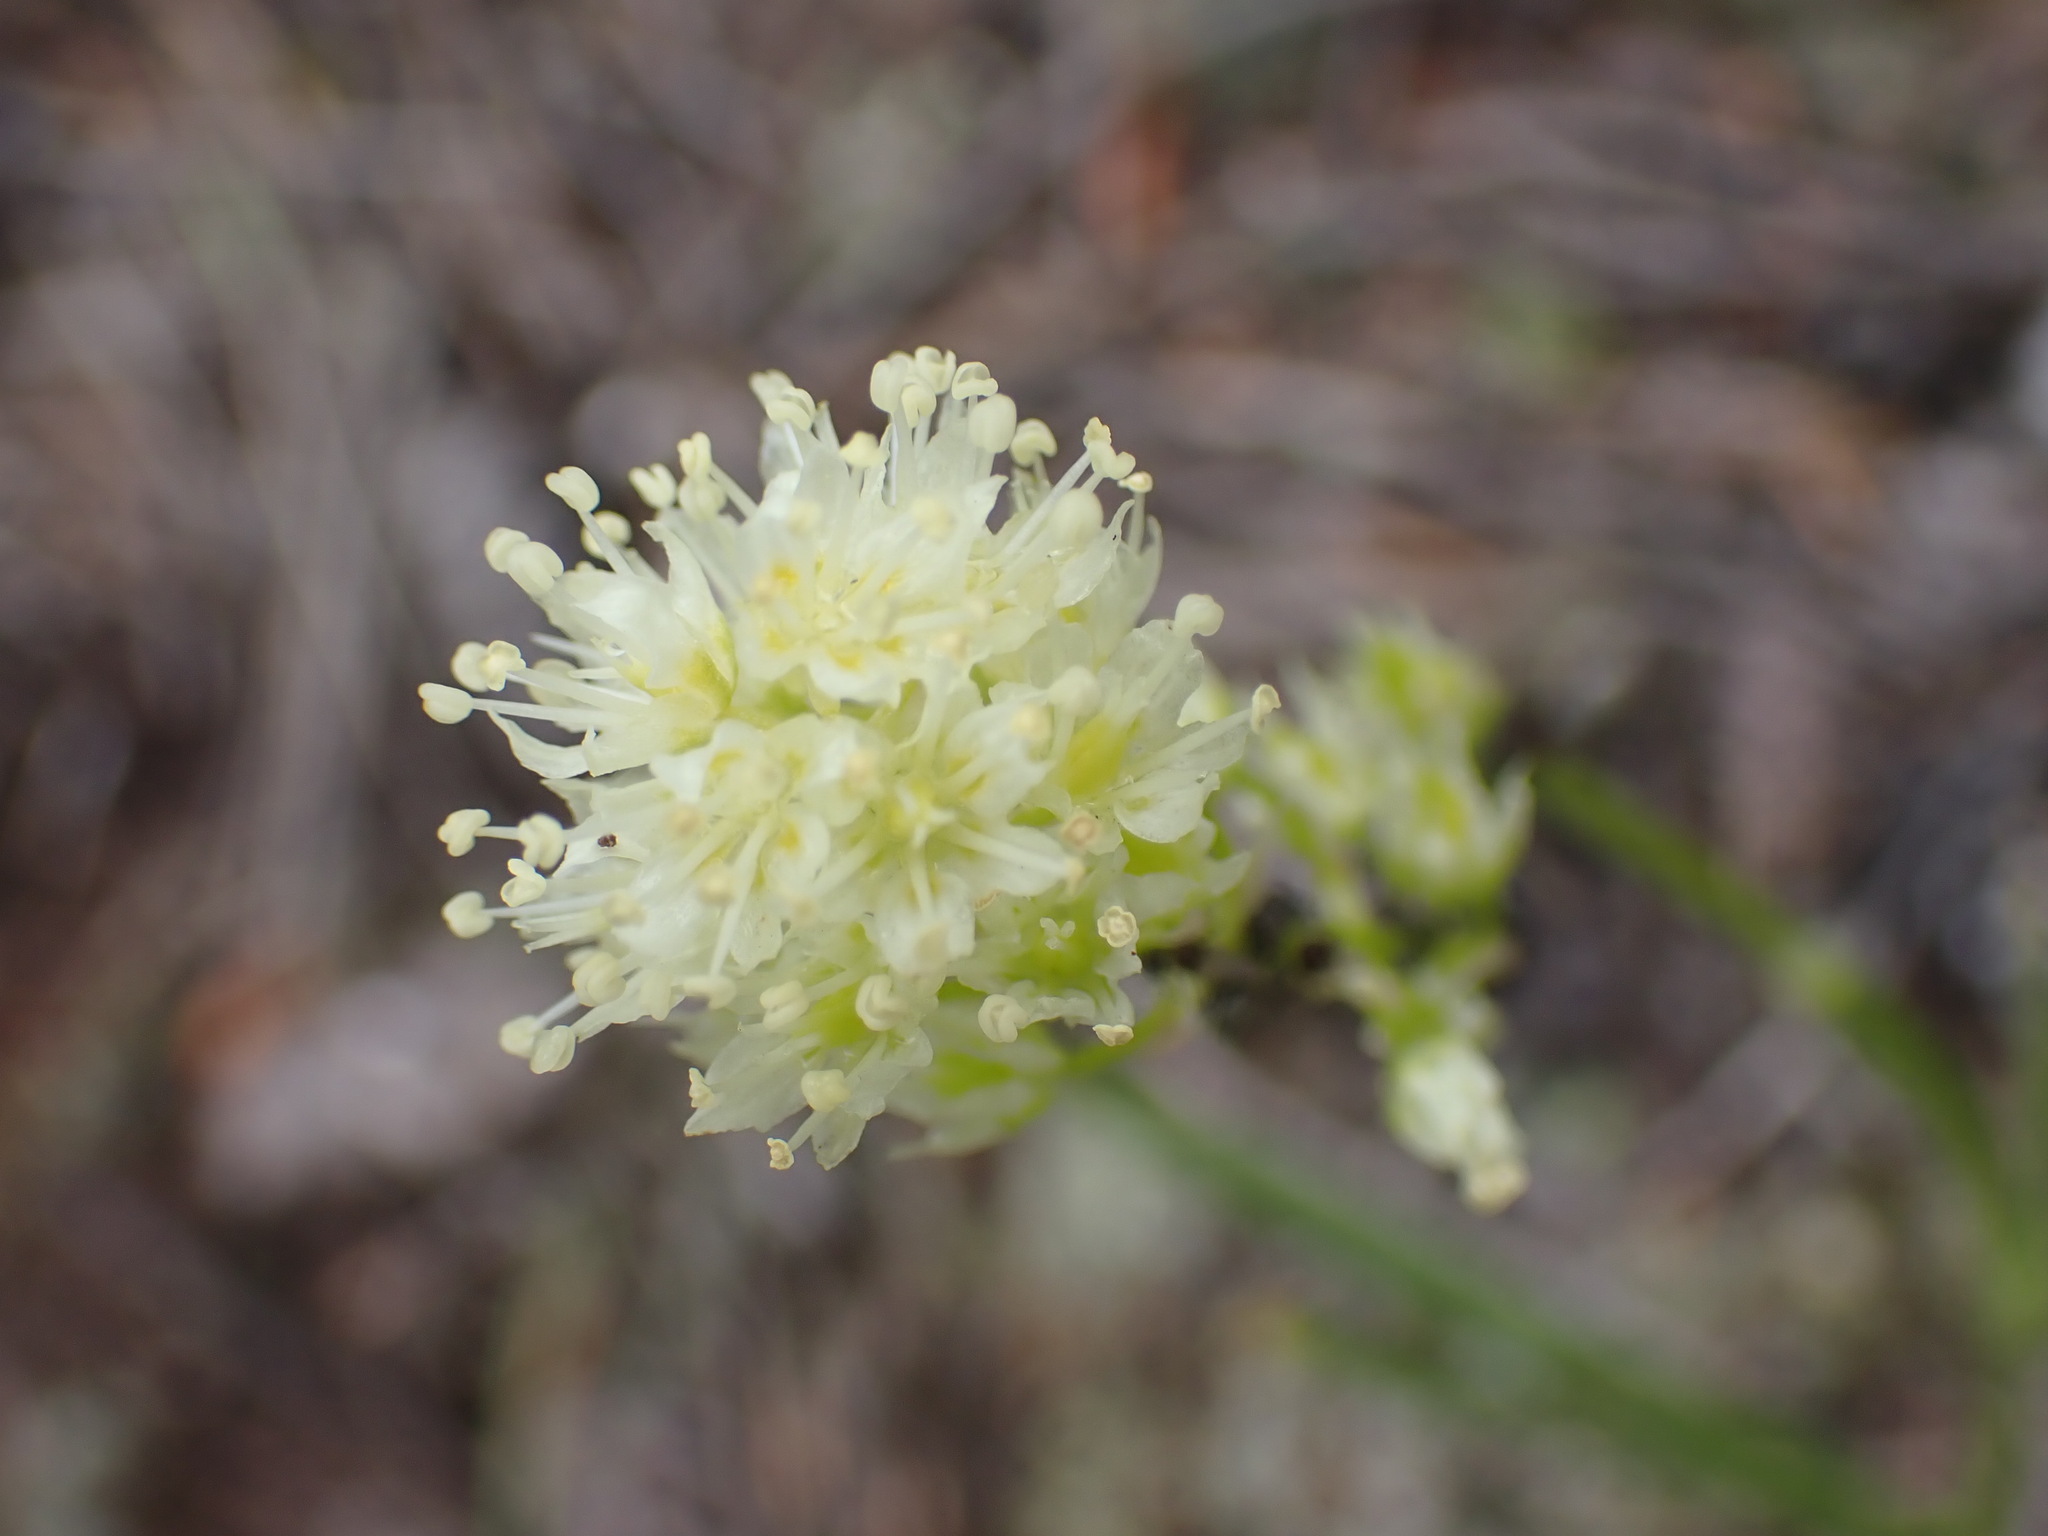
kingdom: Plantae
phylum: Tracheophyta
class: Liliopsida
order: Liliales
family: Melanthiaceae
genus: Toxicoscordion
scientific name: Toxicoscordion venenosum
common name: Meadow death camas
